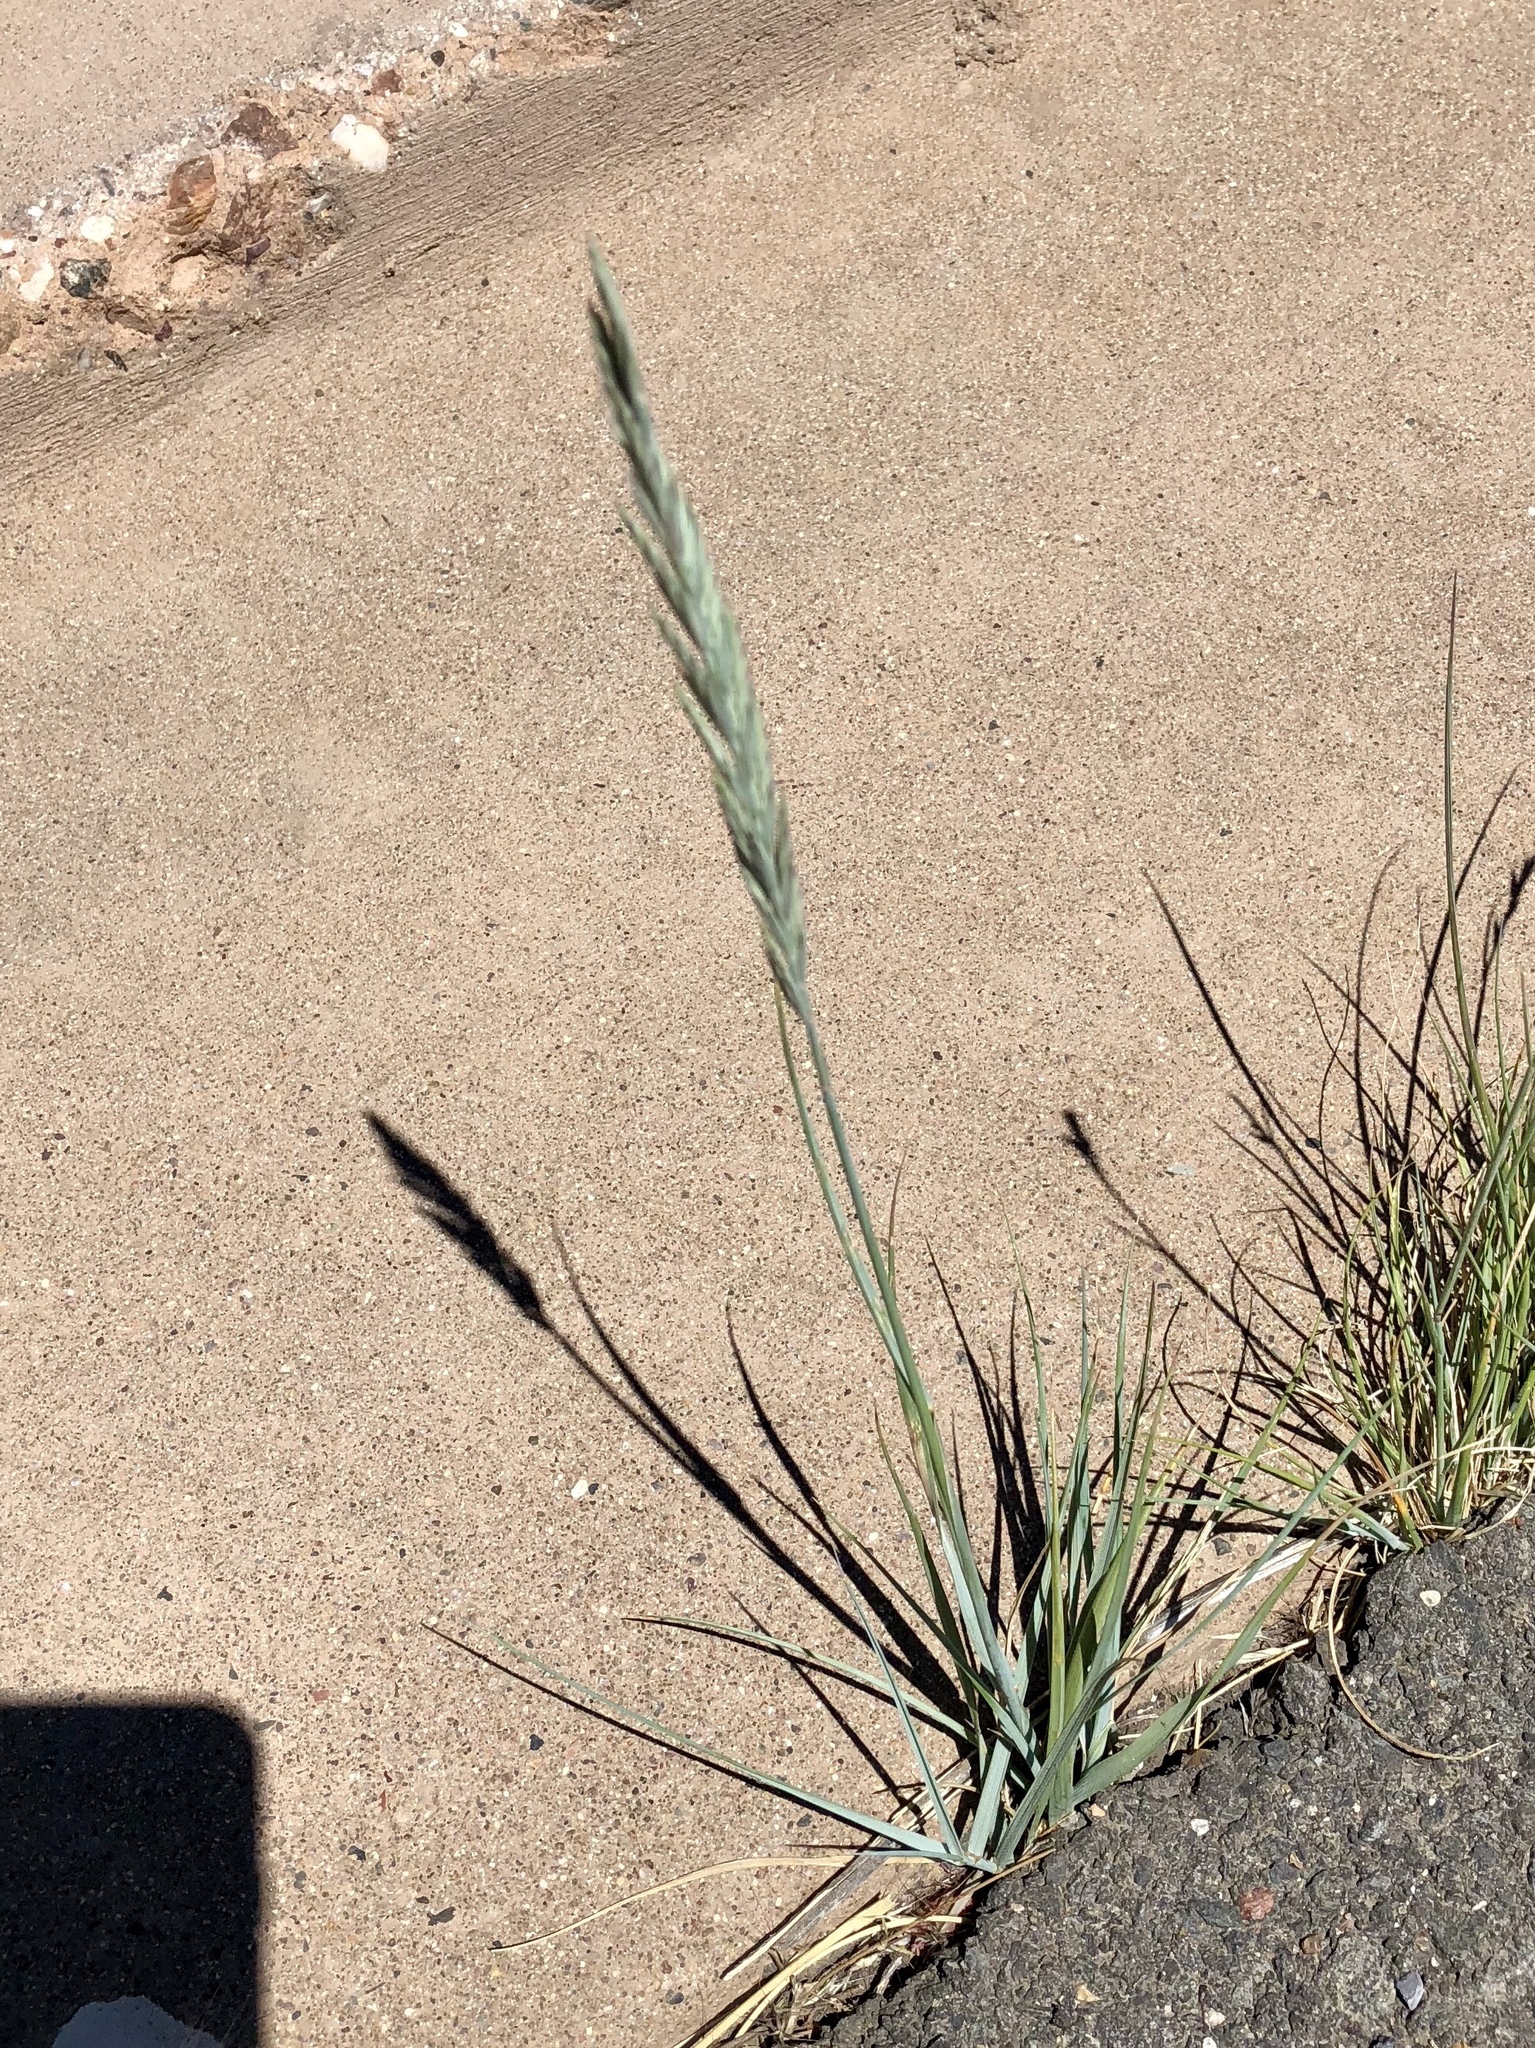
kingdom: Plantae
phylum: Tracheophyta
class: Liliopsida
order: Poales
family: Poaceae
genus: Elymus
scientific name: Elymus smithii
